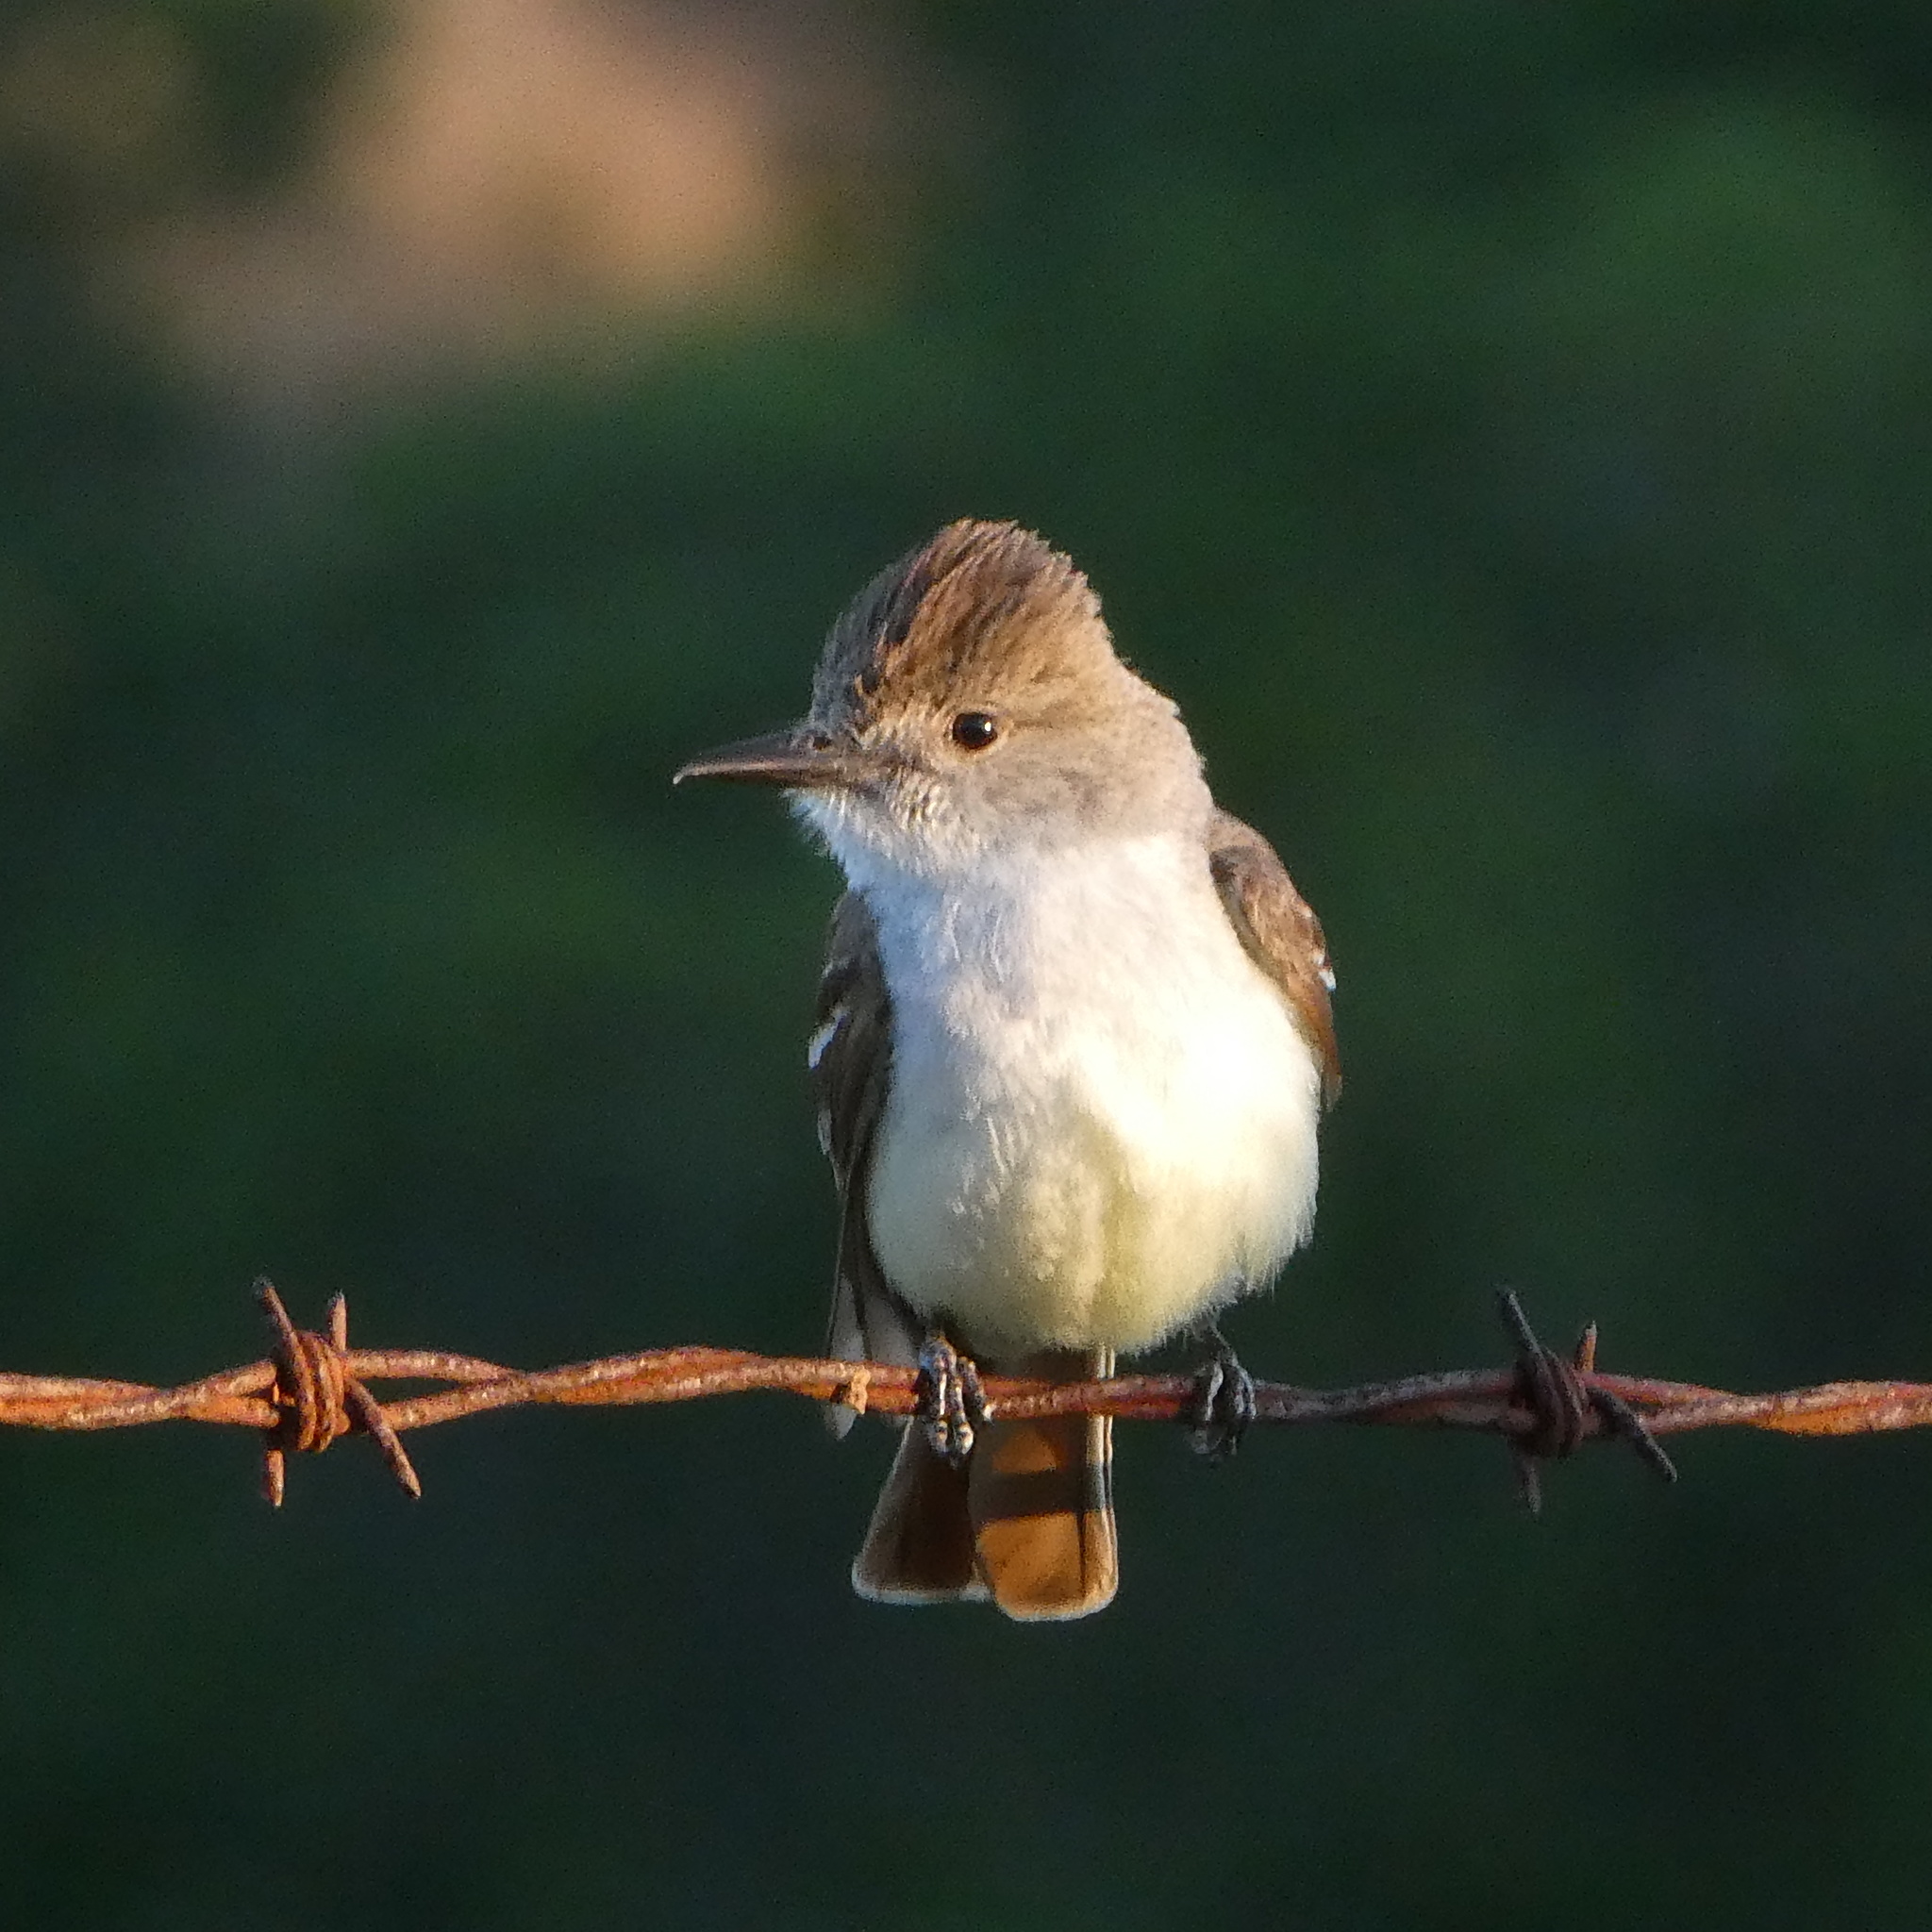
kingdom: Animalia
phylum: Chordata
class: Aves
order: Passeriformes
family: Tyrannidae
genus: Myiarchus
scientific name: Myiarchus cinerascens
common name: Ash-throated flycatcher
